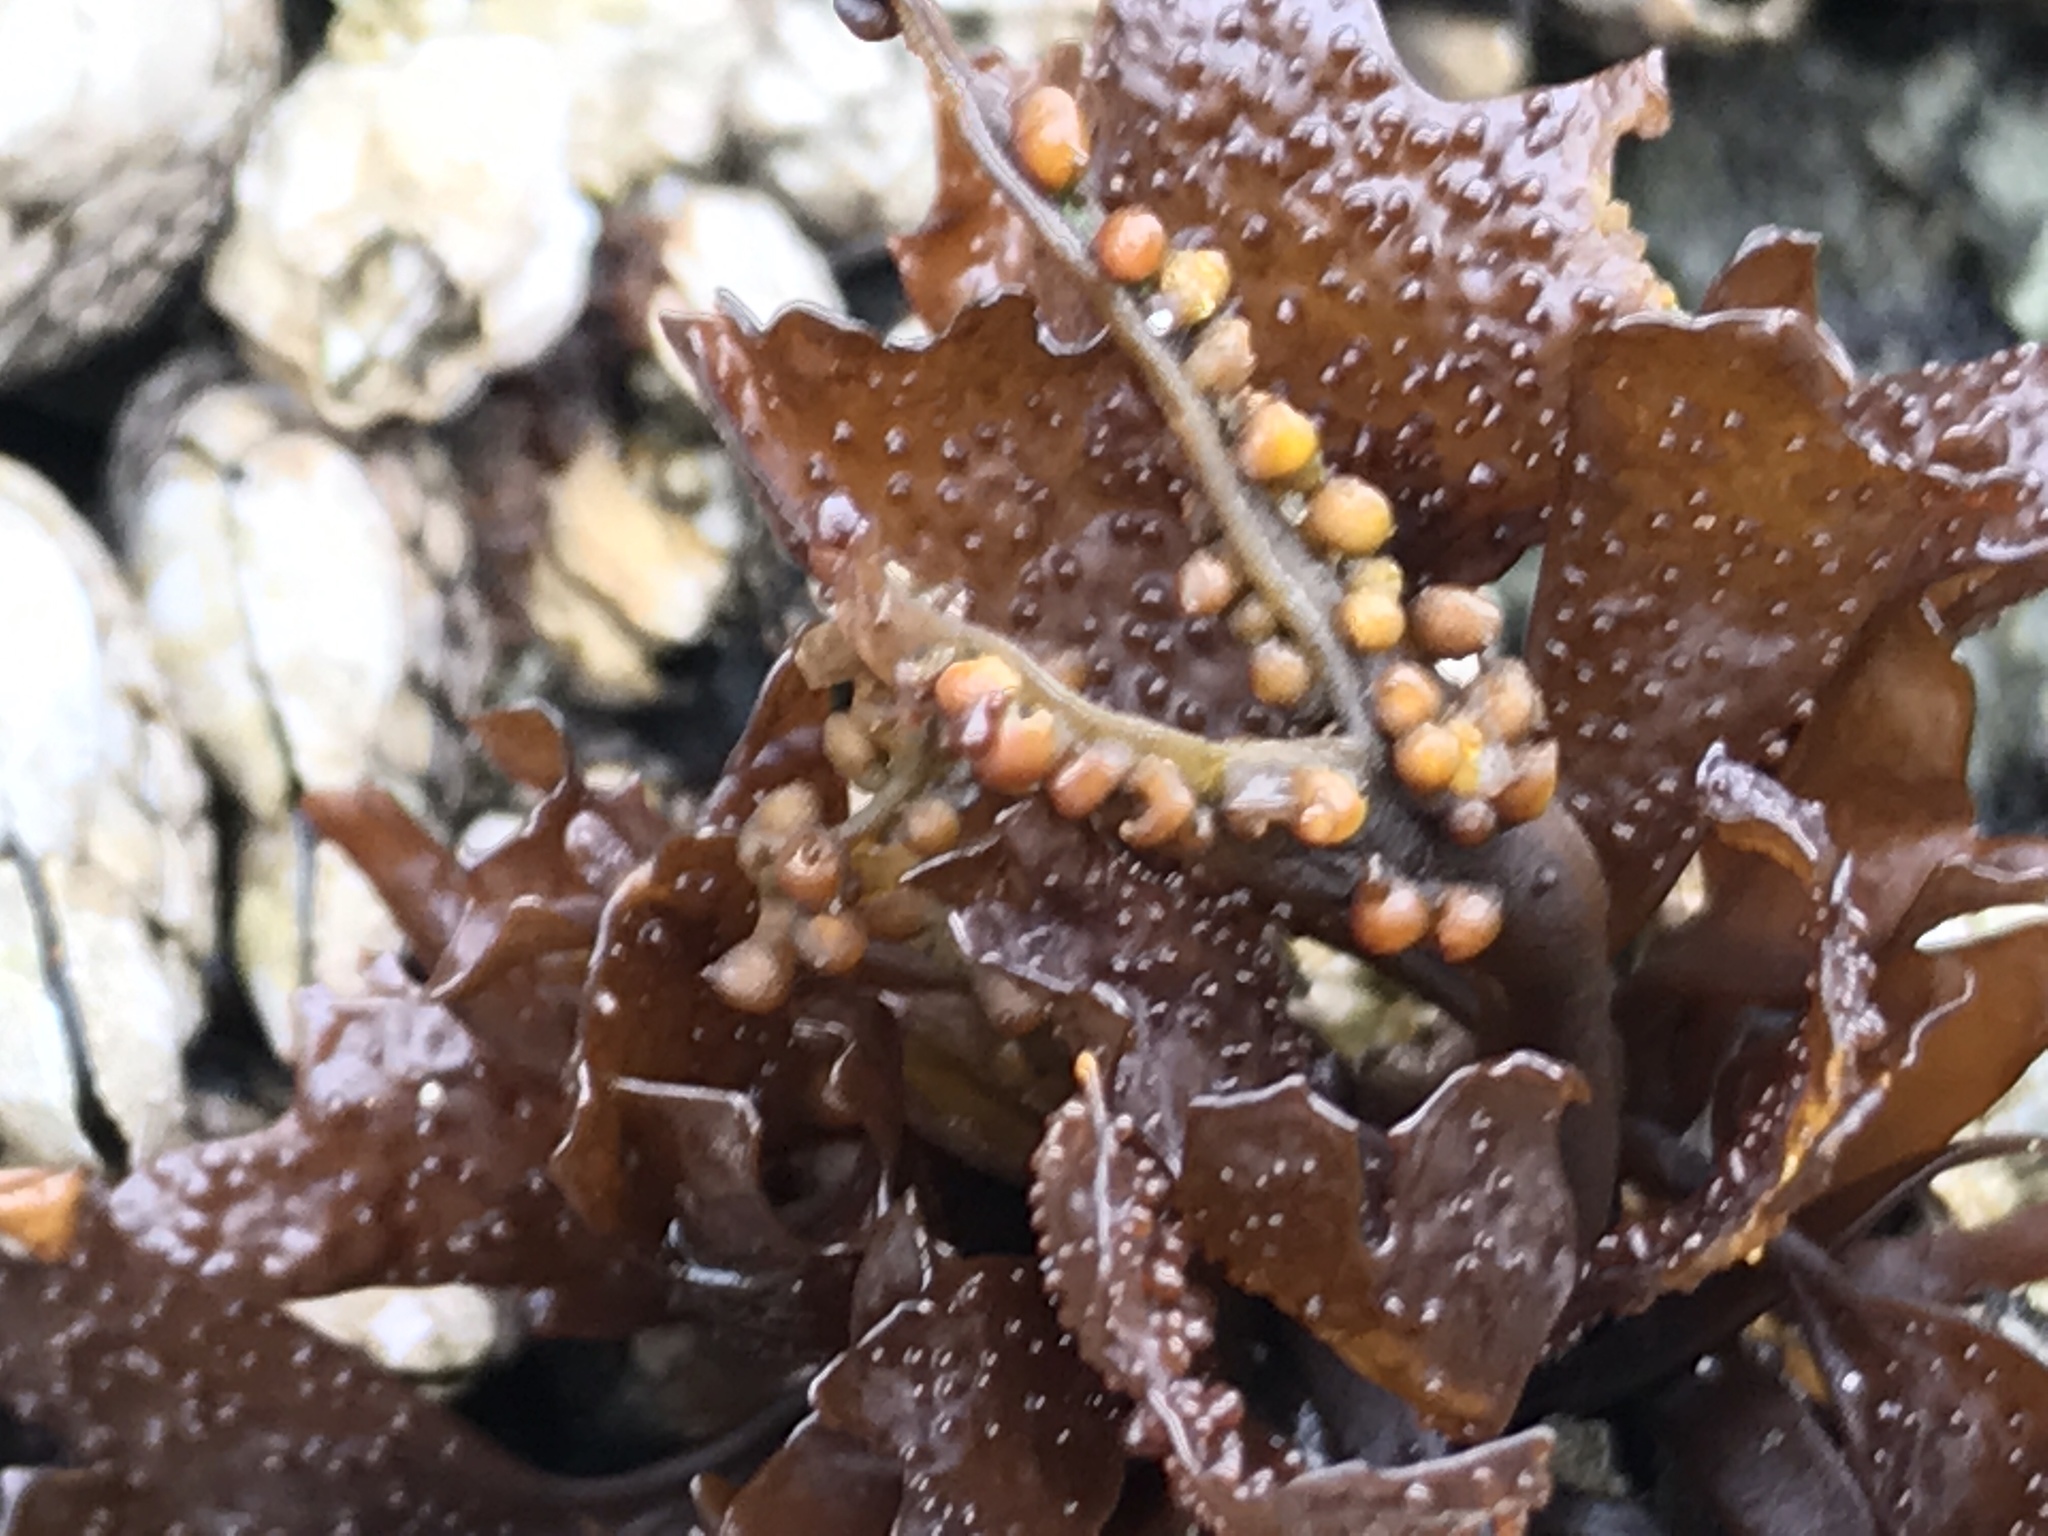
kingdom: Plantae
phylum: Rhodophyta
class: Florideophyceae
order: Gigartinales
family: Phyllophoraceae
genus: Mastocarpus
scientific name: Mastocarpus papillatus
